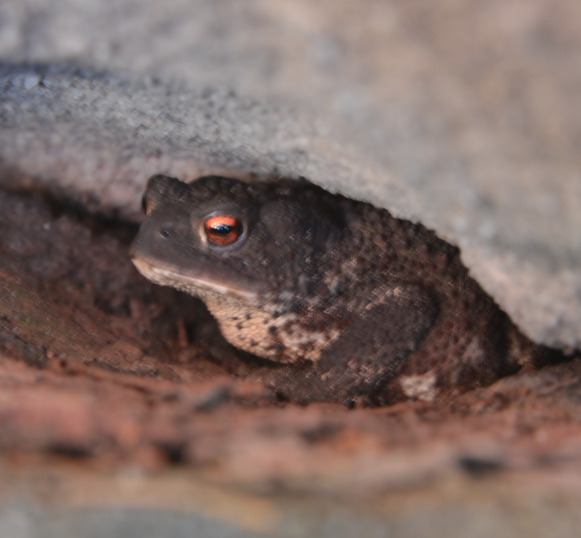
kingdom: Animalia
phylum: Chordata
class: Amphibia
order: Anura
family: Bufonidae
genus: Bufo
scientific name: Bufo bufo
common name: Common toad
